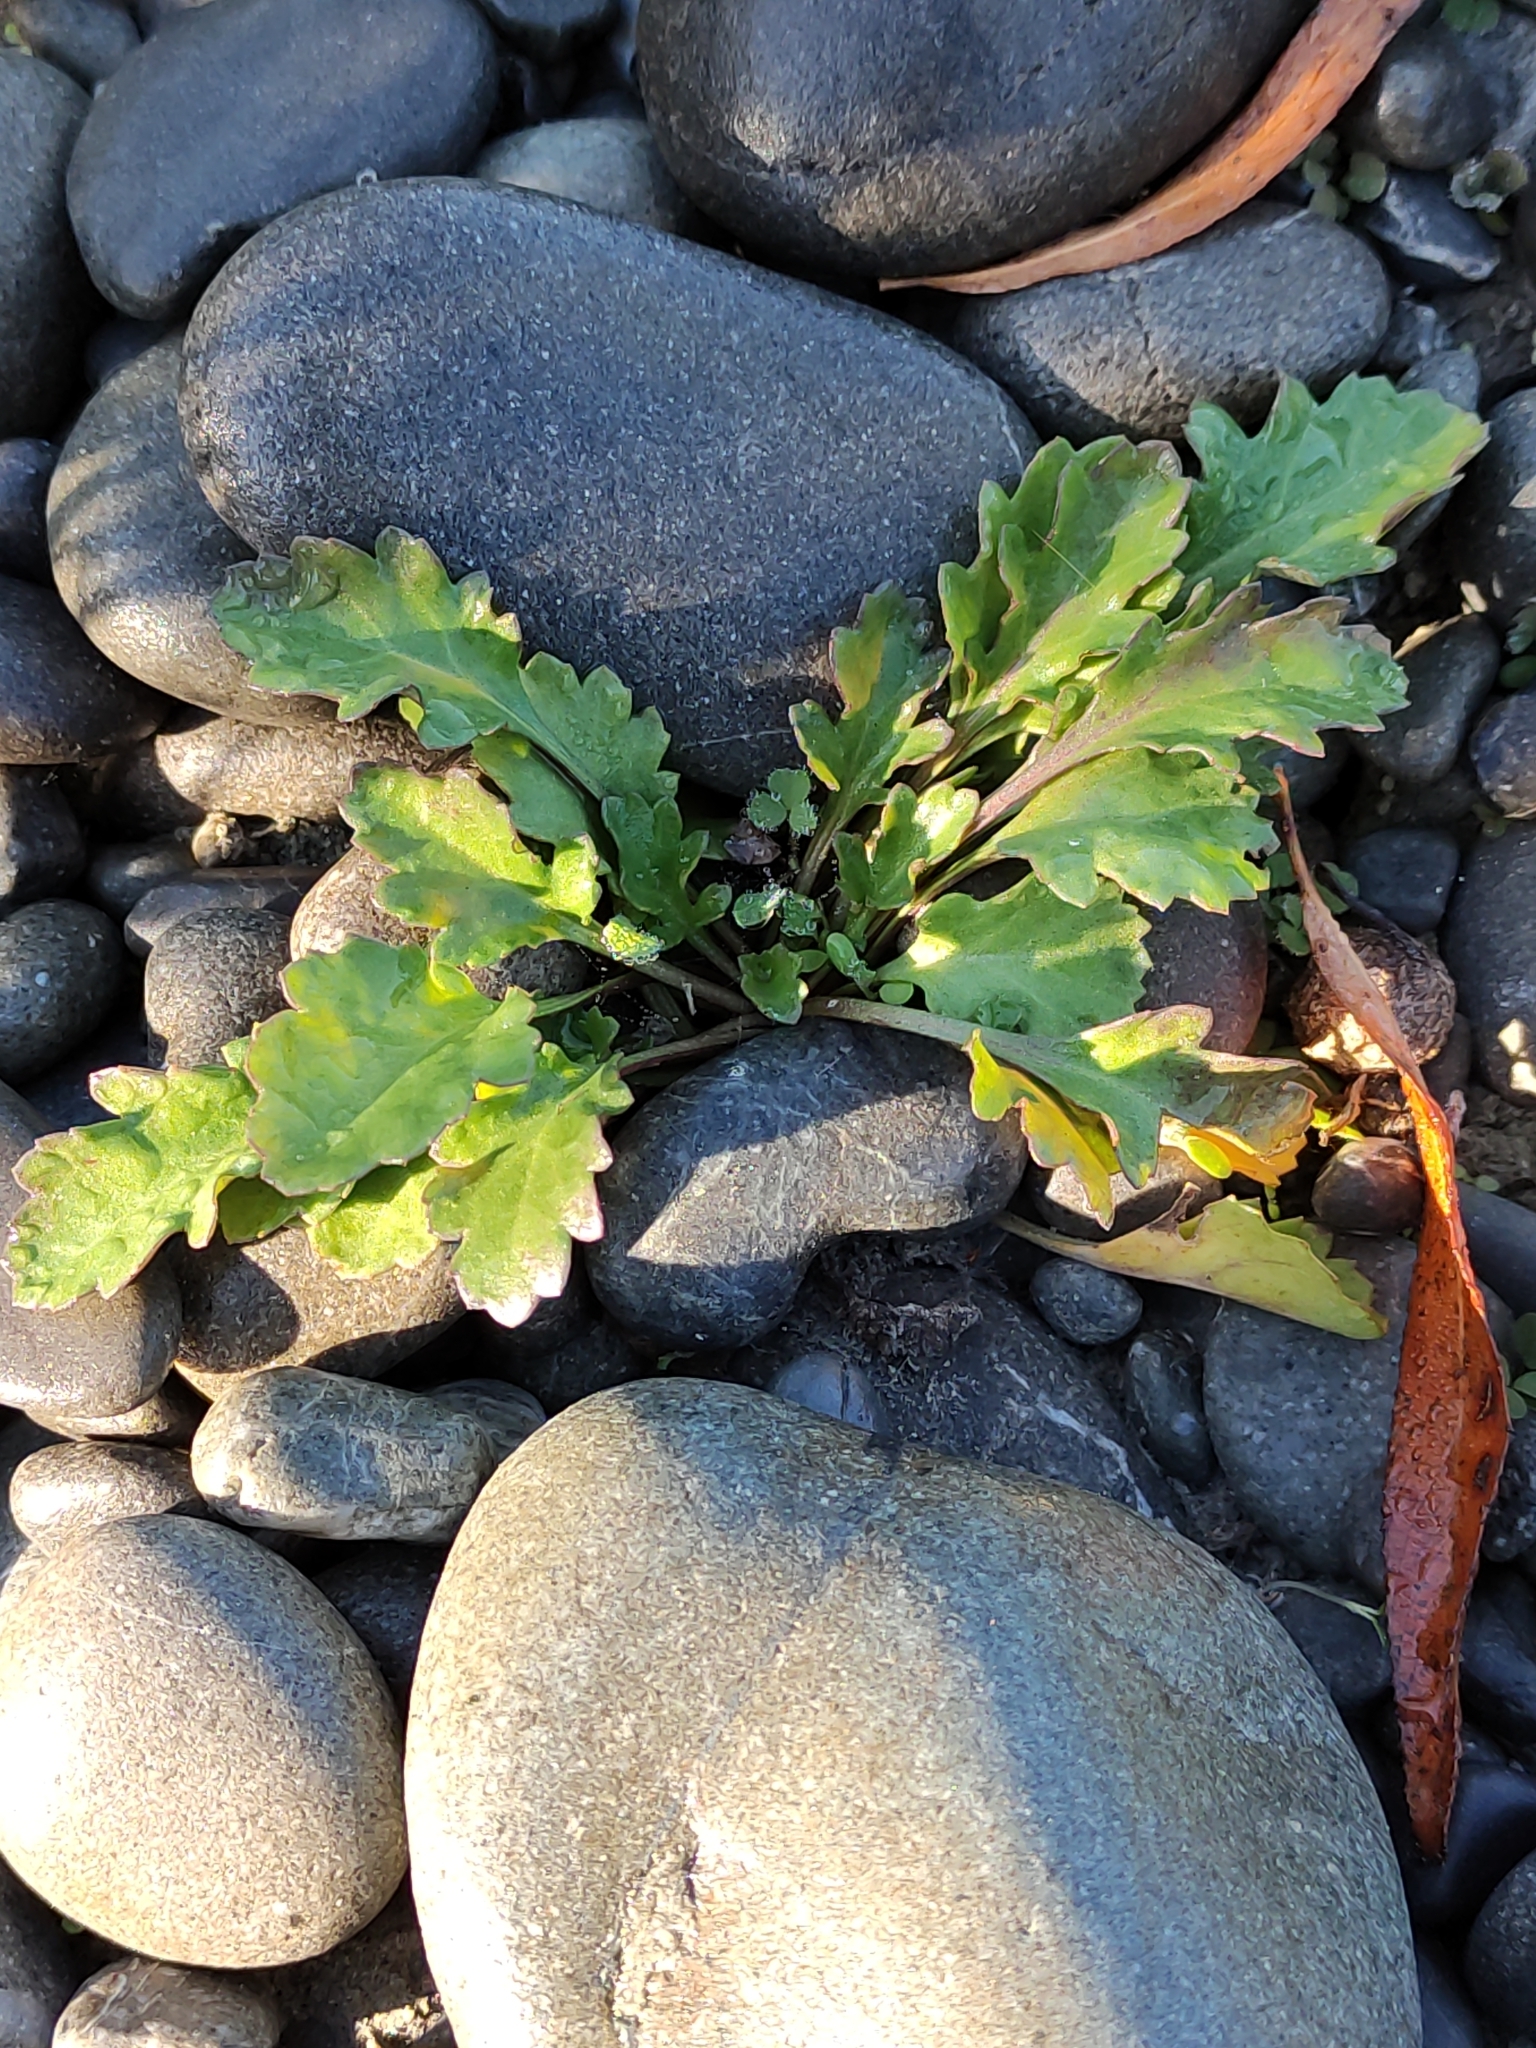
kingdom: Plantae
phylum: Tracheophyta
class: Magnoliopsida
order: Asterales
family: Asteraceae
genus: Leucanthemum
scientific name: Leucanthemum vulgare
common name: Oxeye daisy
